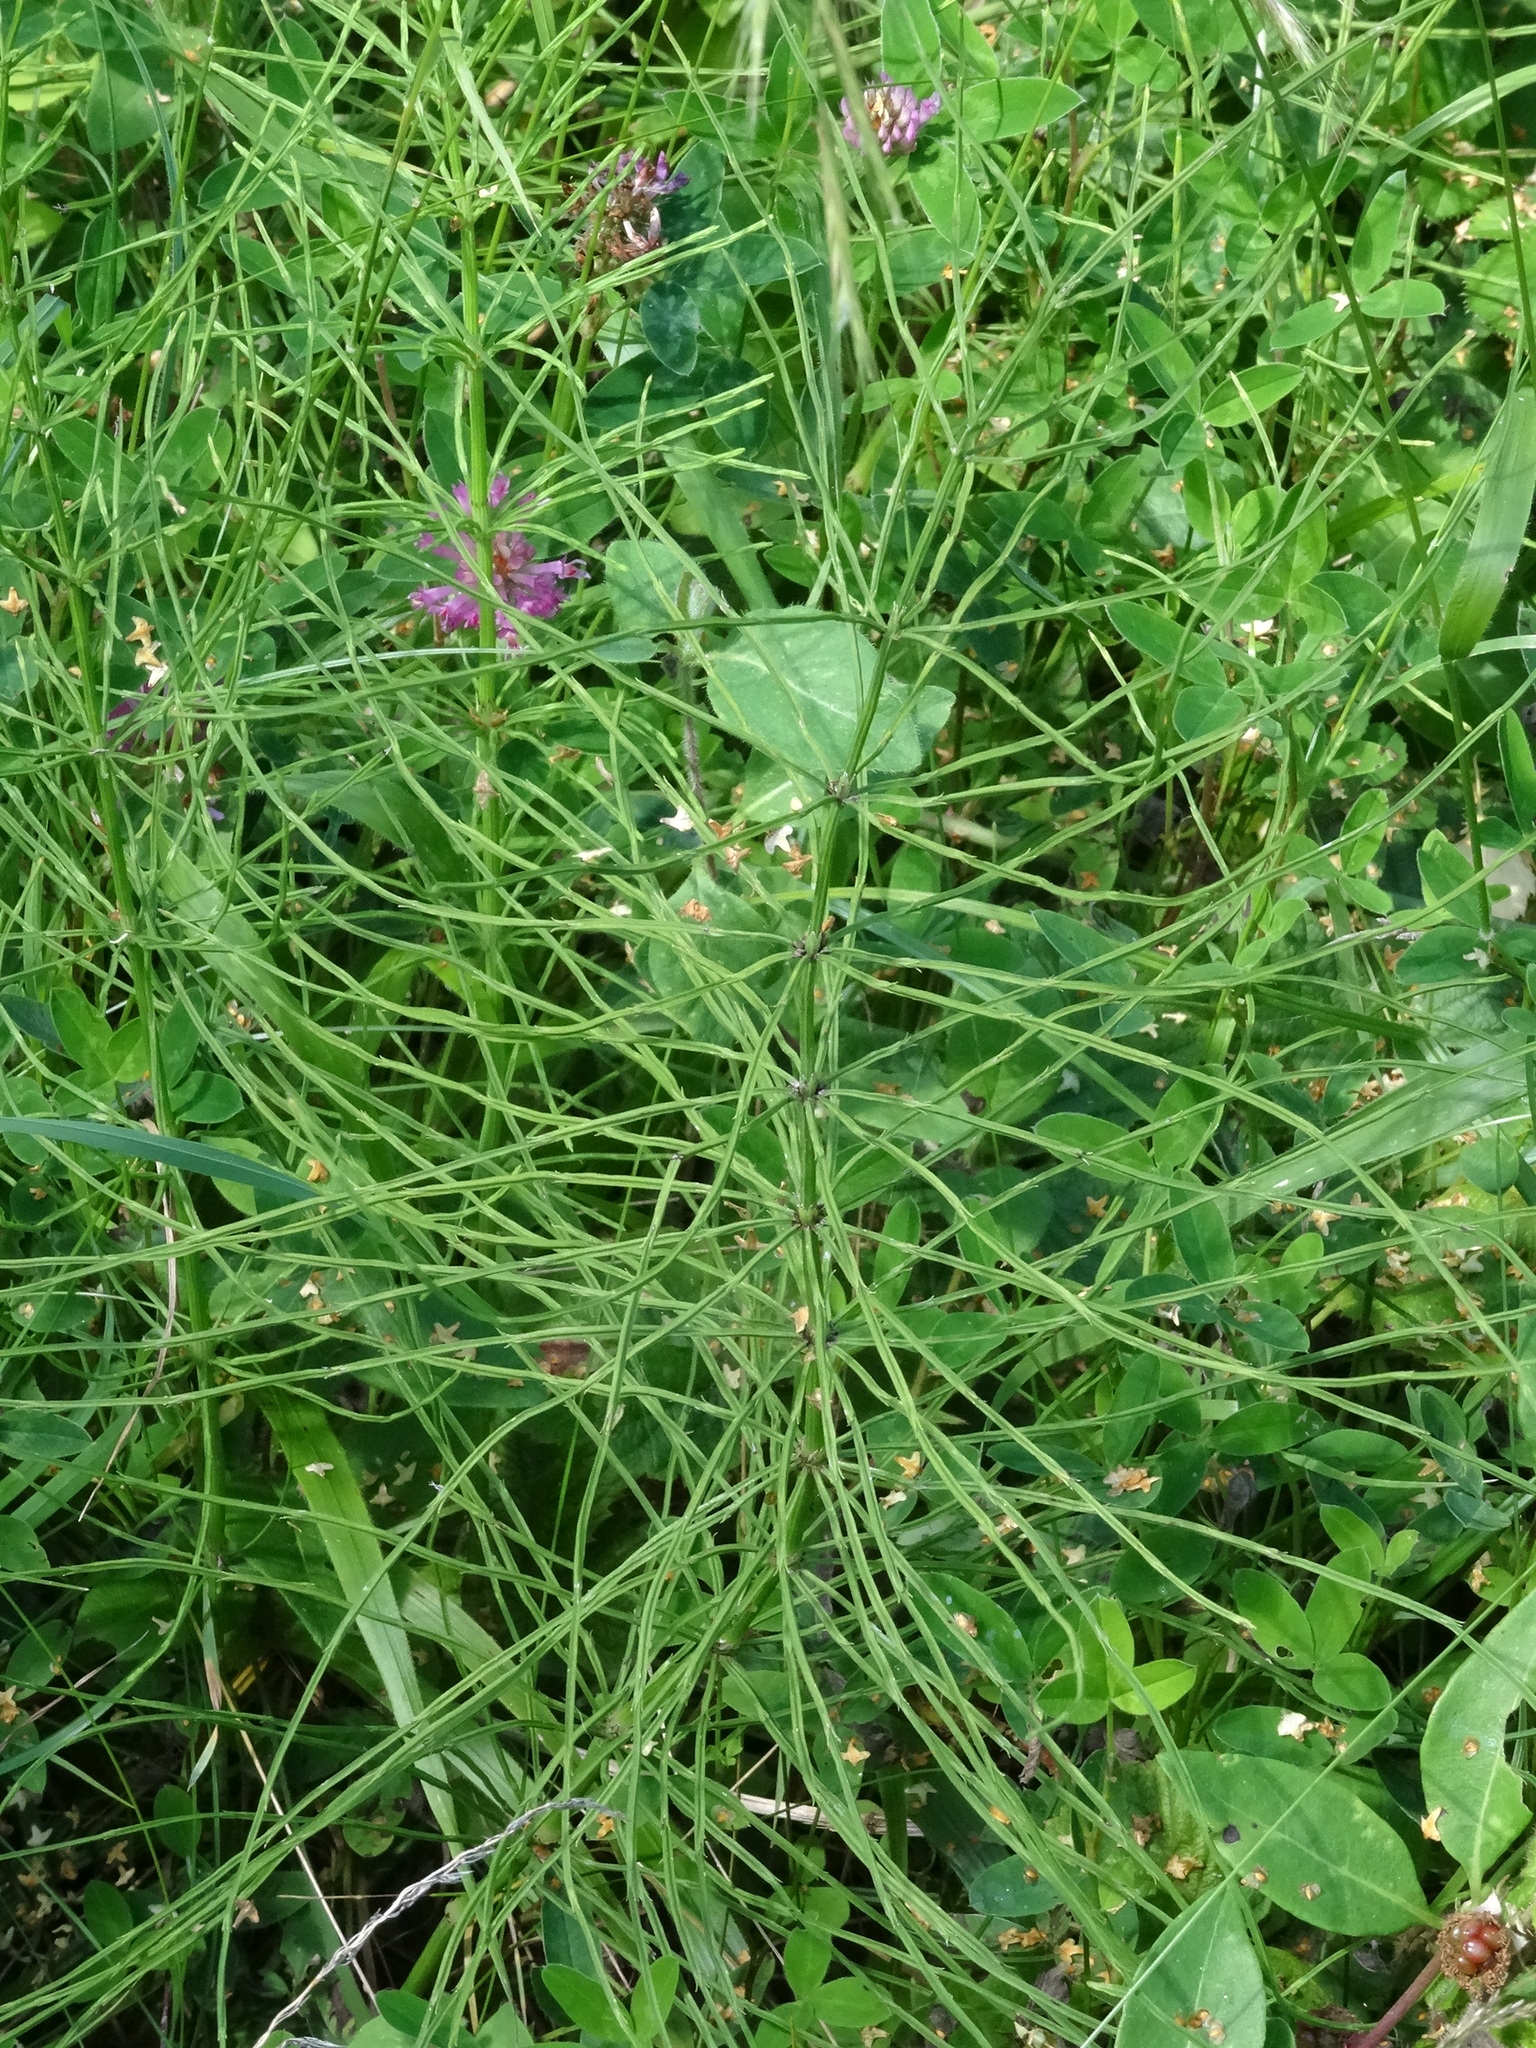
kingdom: Plantae
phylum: Tracheophyta
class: Polypodiopsida
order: Equisetales
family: Equisetaceae
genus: Equisetum
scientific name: Equisetum arvense
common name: Field horsetail
